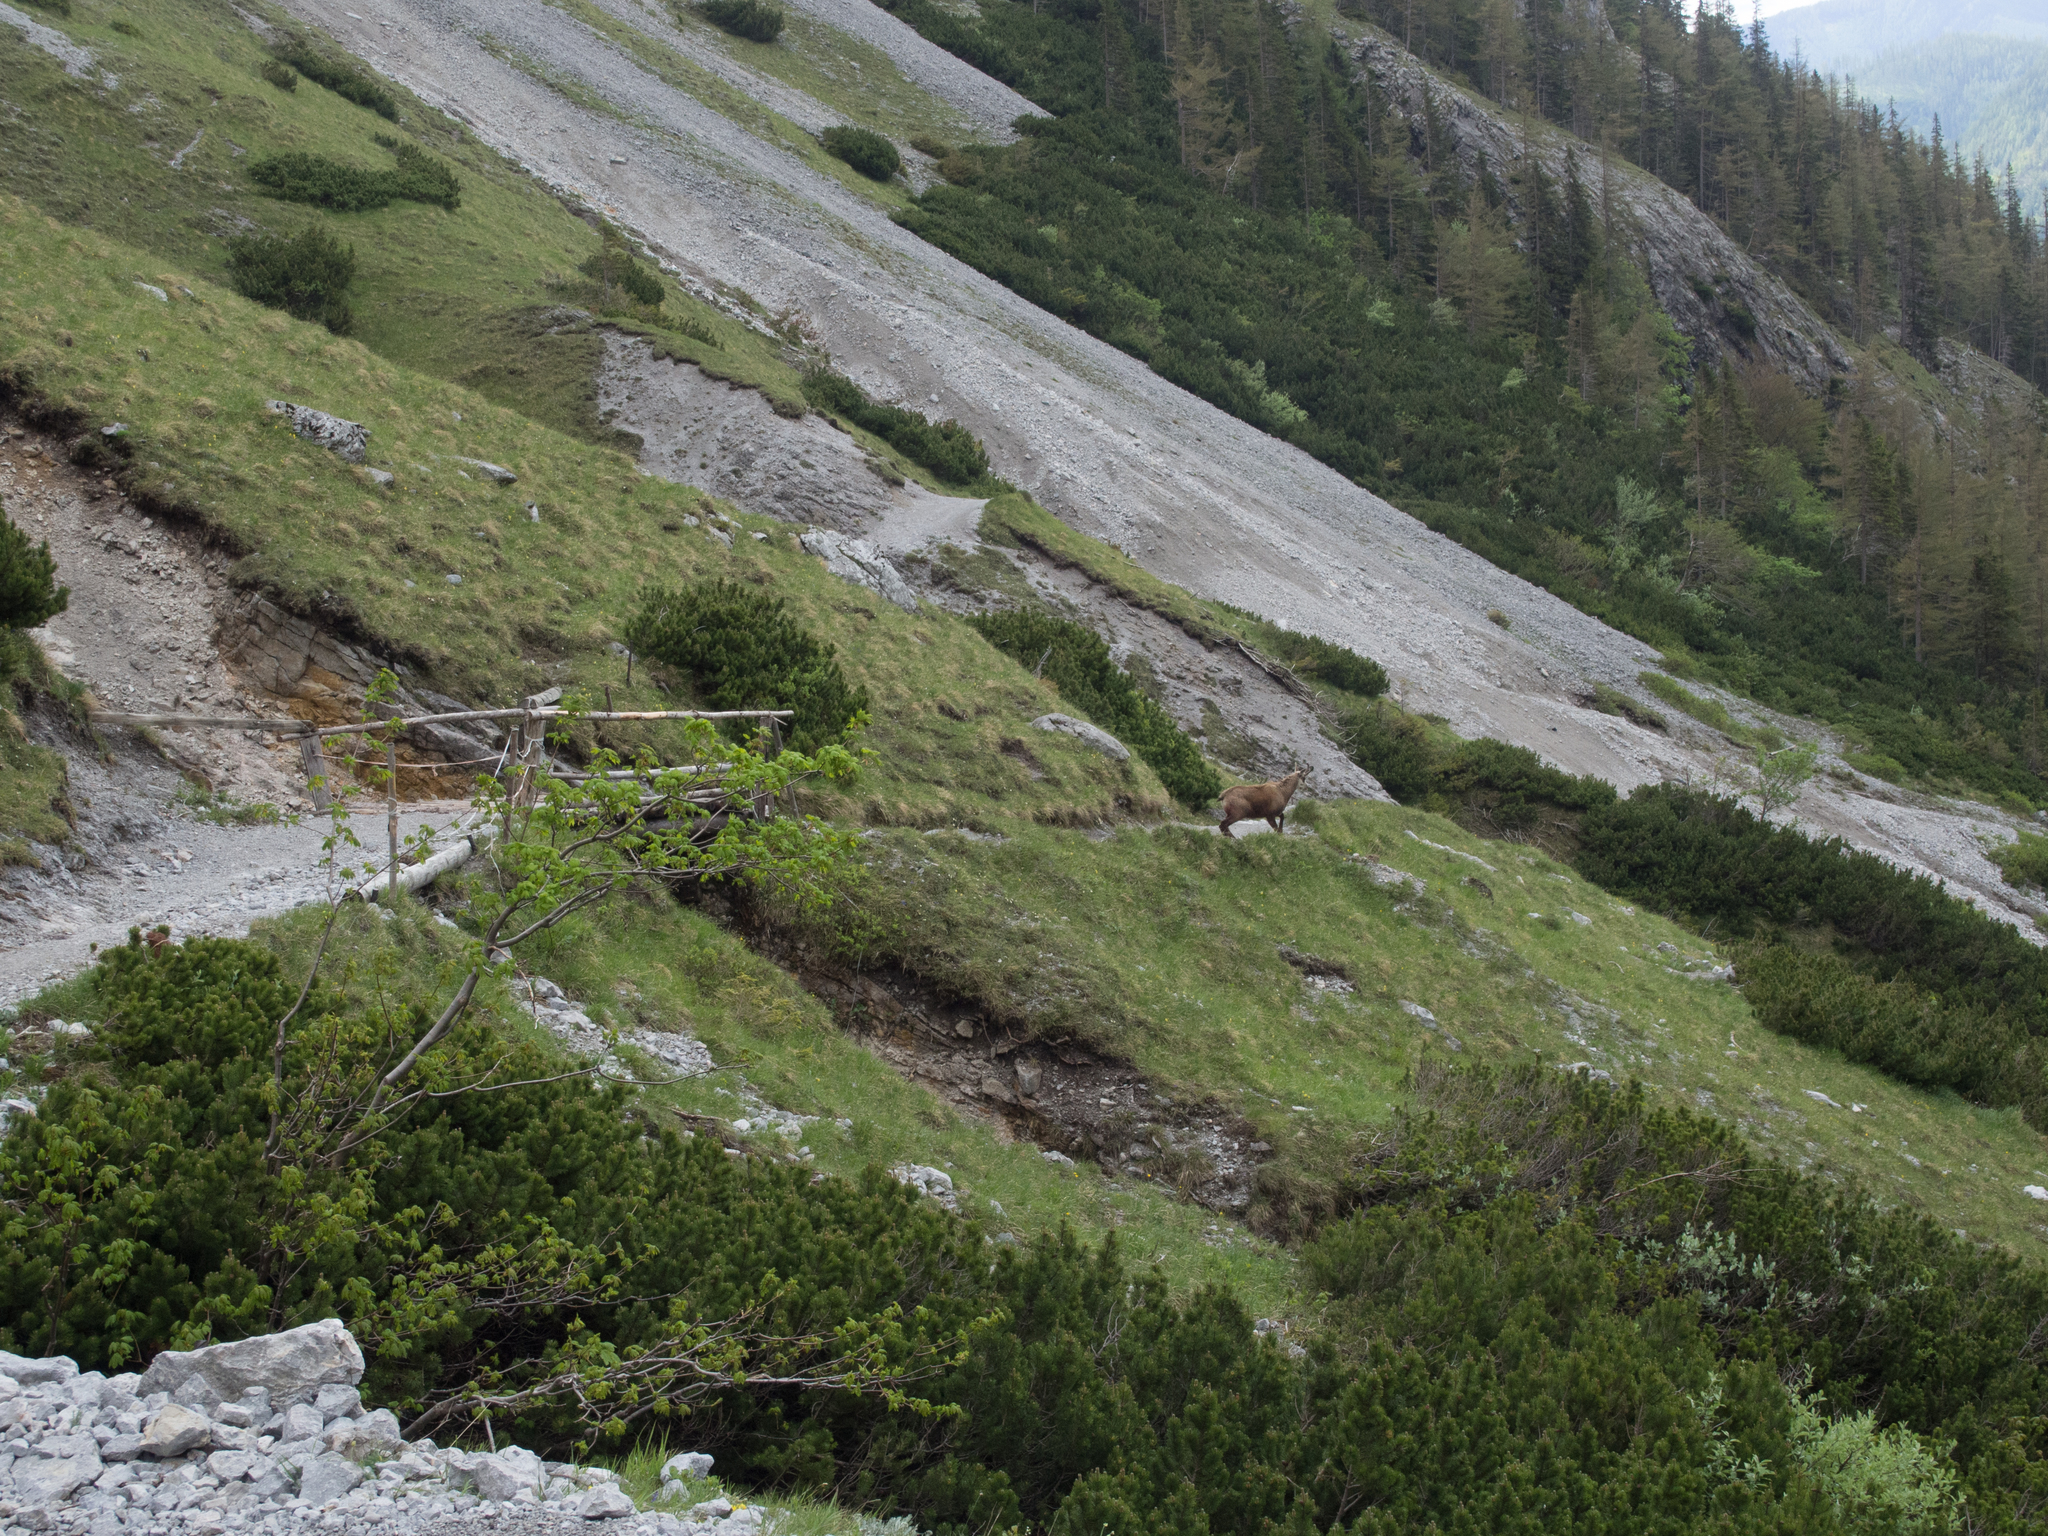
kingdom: Animalia
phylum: Chordata
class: Mammalia
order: Artiodactyla
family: Bovidae
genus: Rupicapra
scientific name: Rupicapra rupicapra
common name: Chamois
